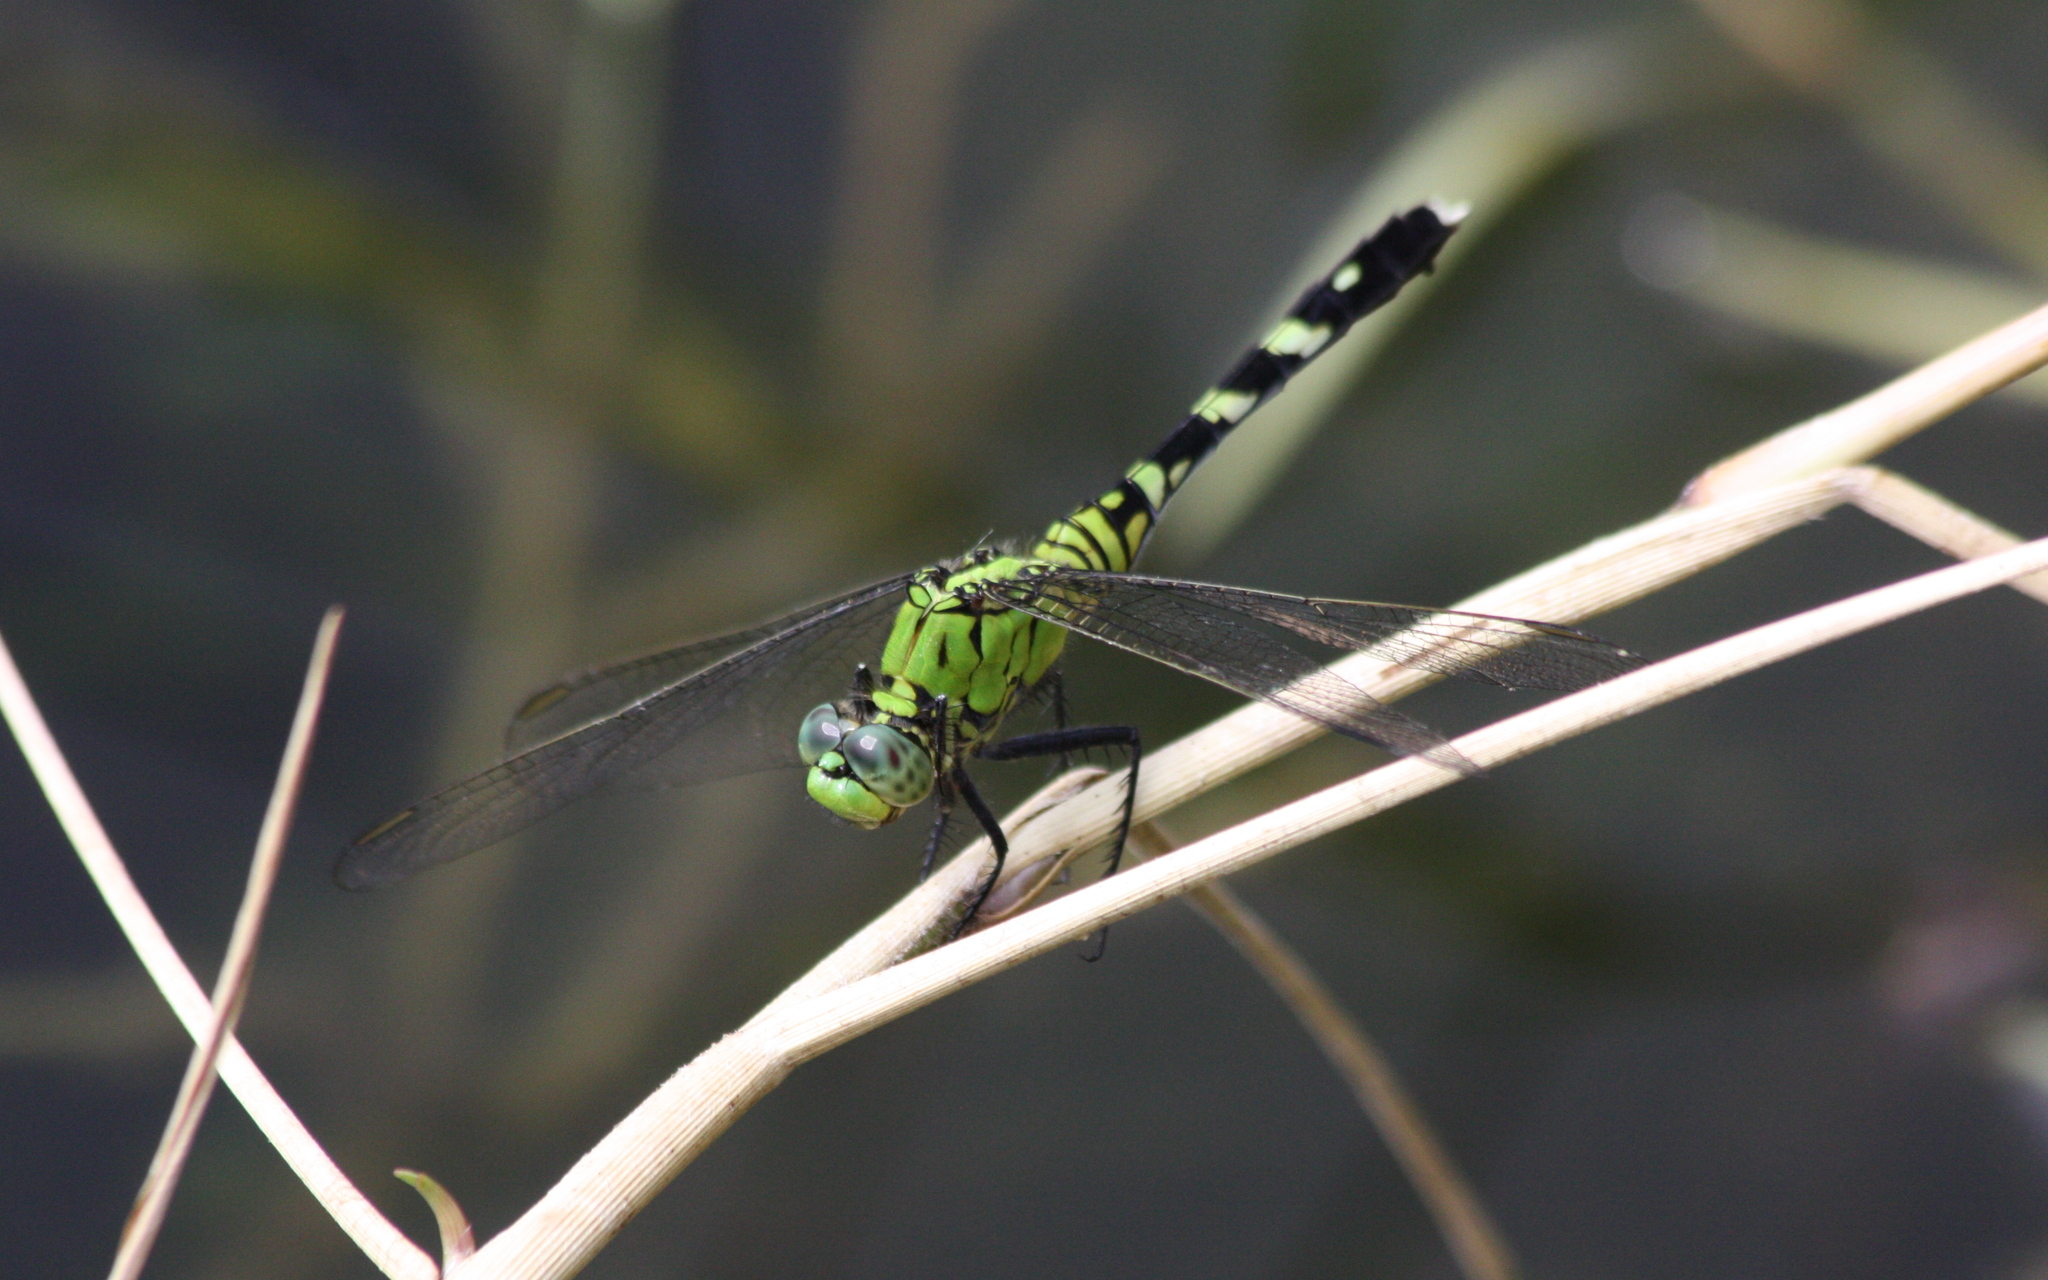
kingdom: Animalia
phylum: Arthropoda
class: Insecta
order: Odonata
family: Libellulidae
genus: Erythemis
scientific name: Erythemis simplicicollis
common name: Eastern pondhawk
